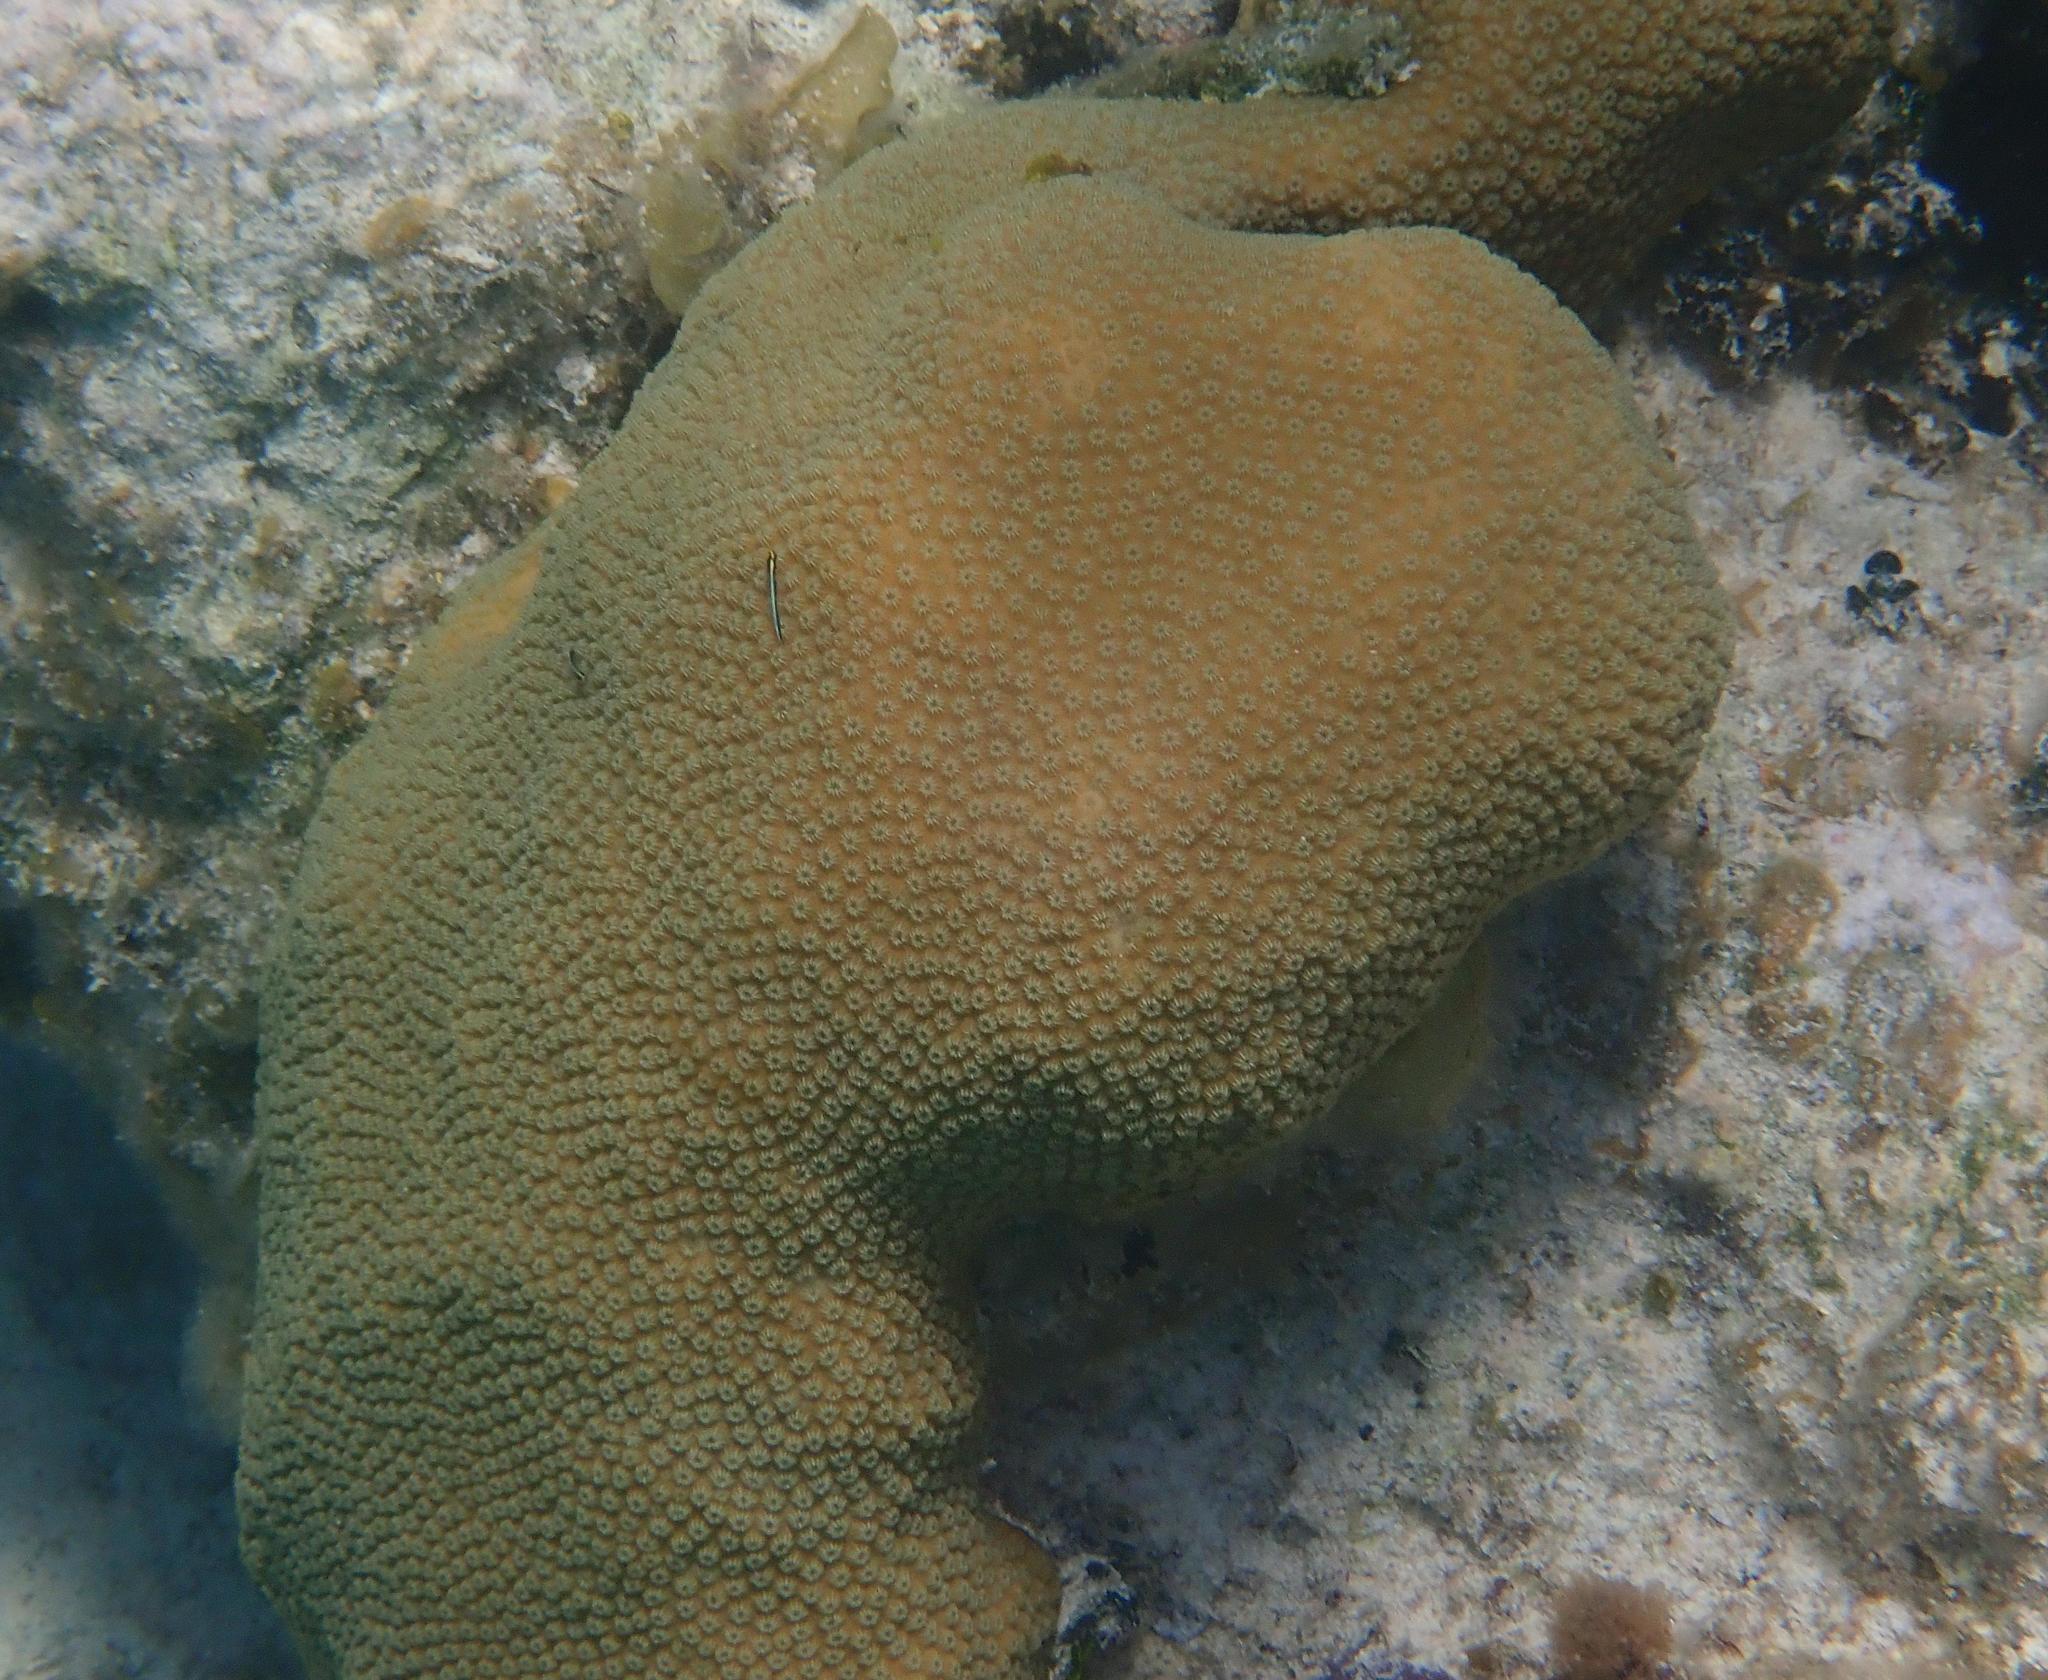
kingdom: Animalia
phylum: Cnidaria
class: Anthozoa
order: Scleractinia
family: Merulinidae
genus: Orbicella
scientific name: Orbicella annularis
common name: Boulder star coral
